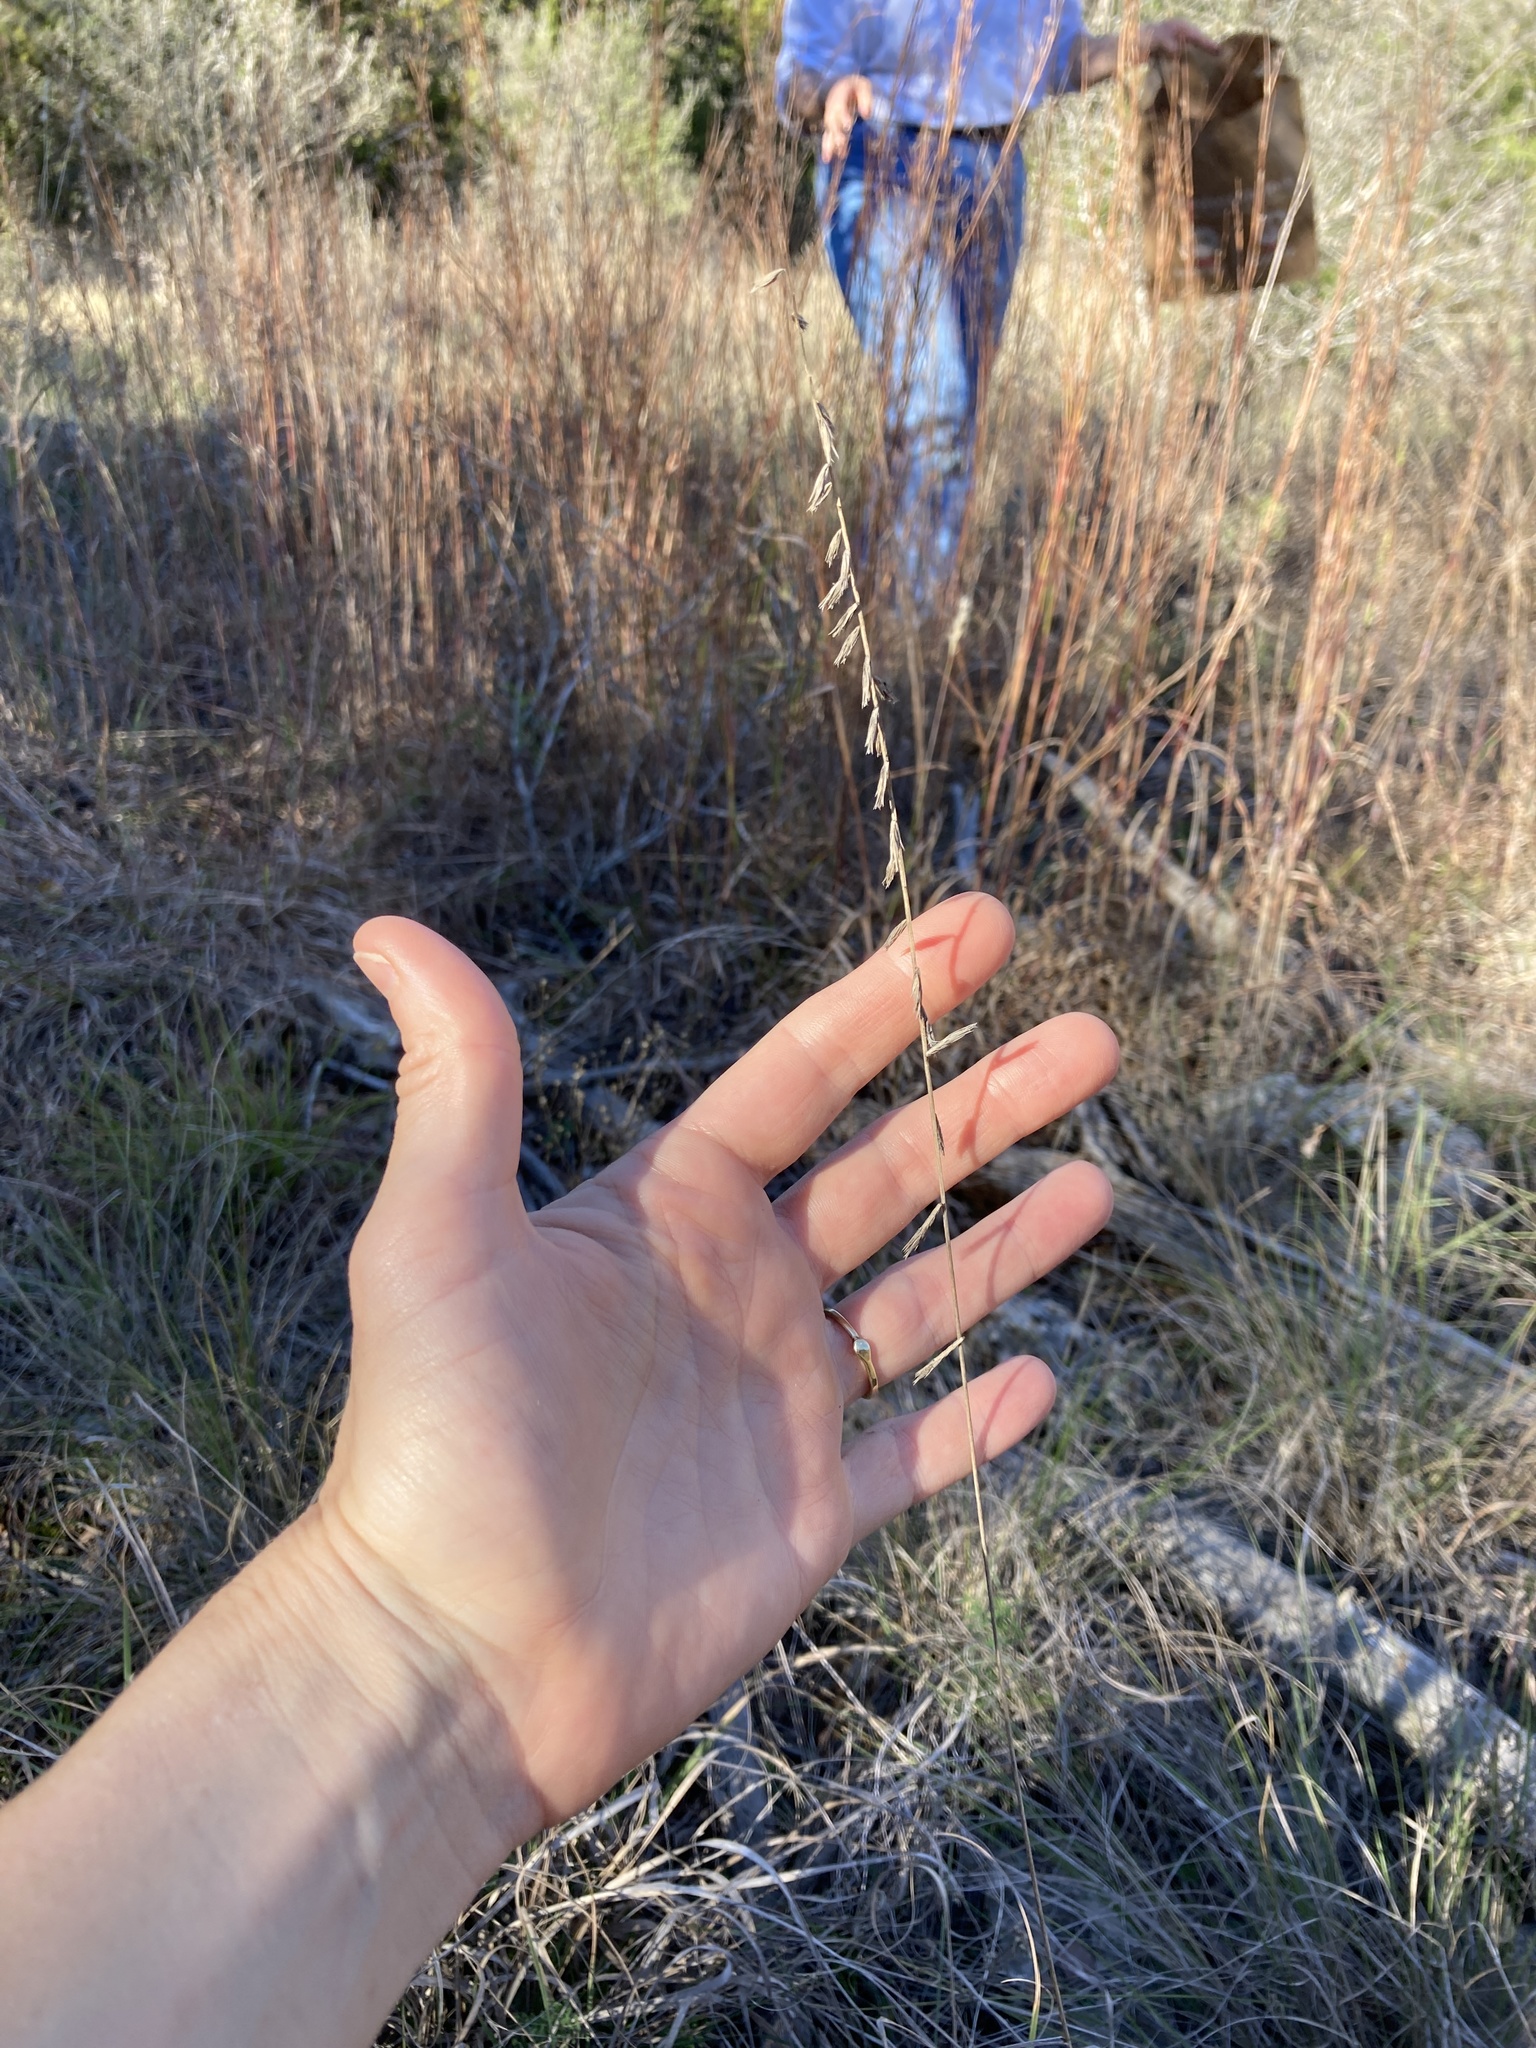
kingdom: Plantae
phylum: Tracheophyta
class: Liliopsida
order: Poales
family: Poaceae
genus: Bouteloua
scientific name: Bouteloua curtipendula
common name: Side-oats grama
